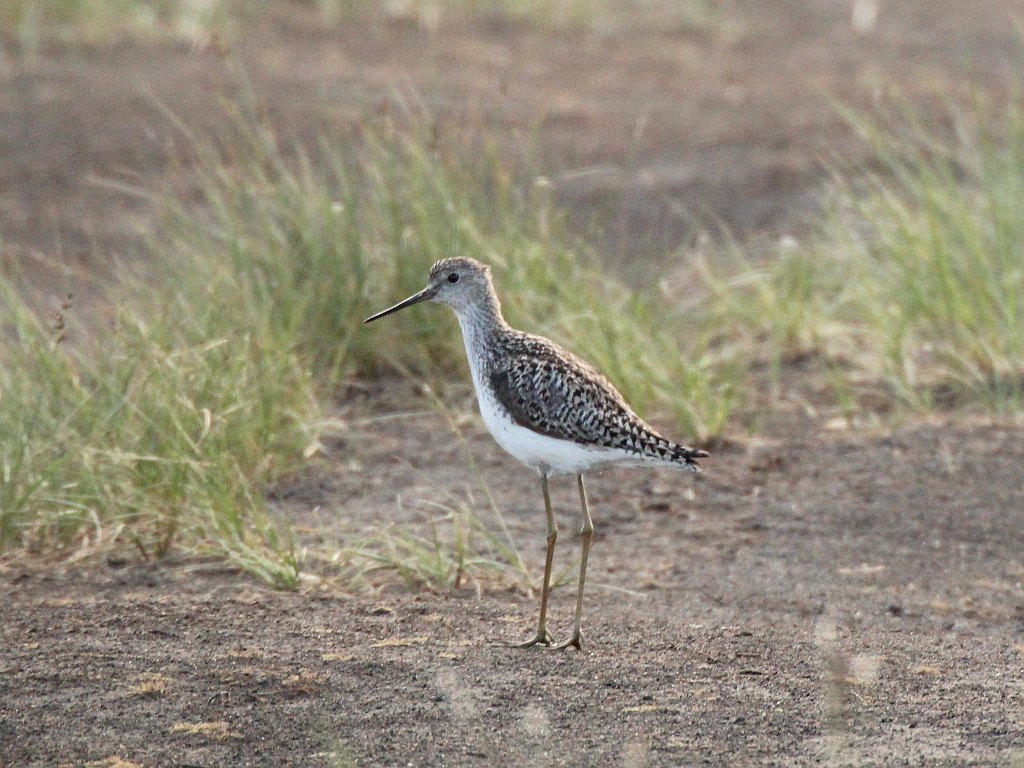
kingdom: Animalia
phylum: Chordata
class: Aves
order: Charadriiformes
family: Scolopacidae
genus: Tringa
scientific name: Tringa stagnatilis
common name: Marsh sandpiper
